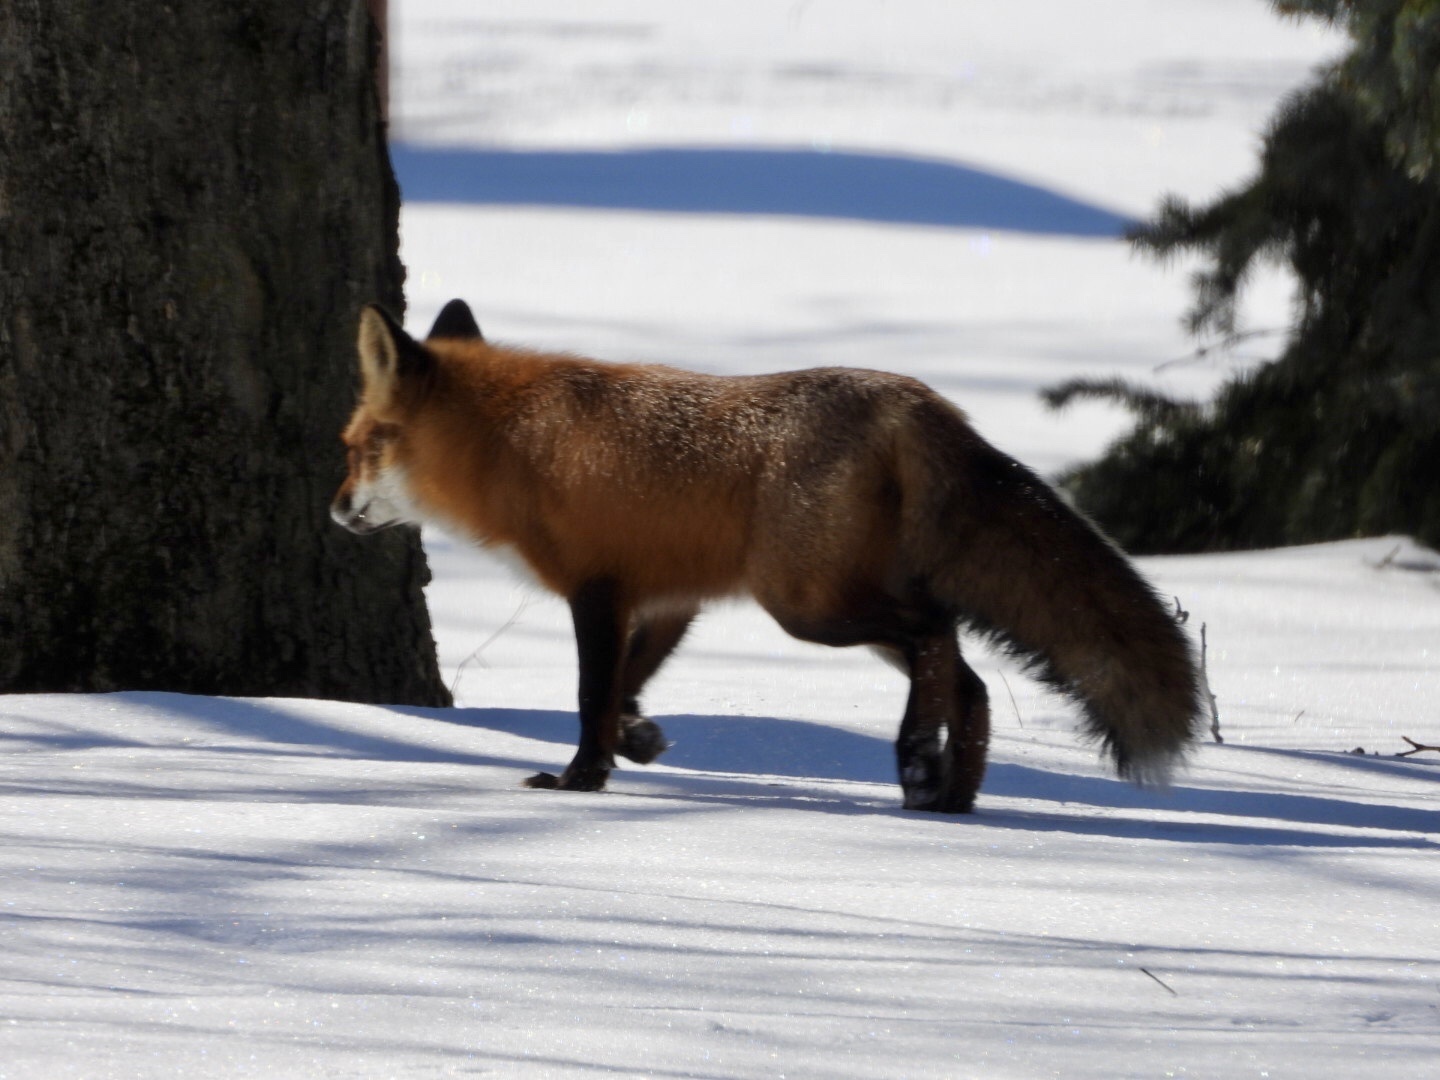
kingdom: Animalia
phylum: Chordata
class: Mammalia
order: Carnivora
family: Canidae
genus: Vulpes
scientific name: Vulpes vulpes
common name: Red fox
